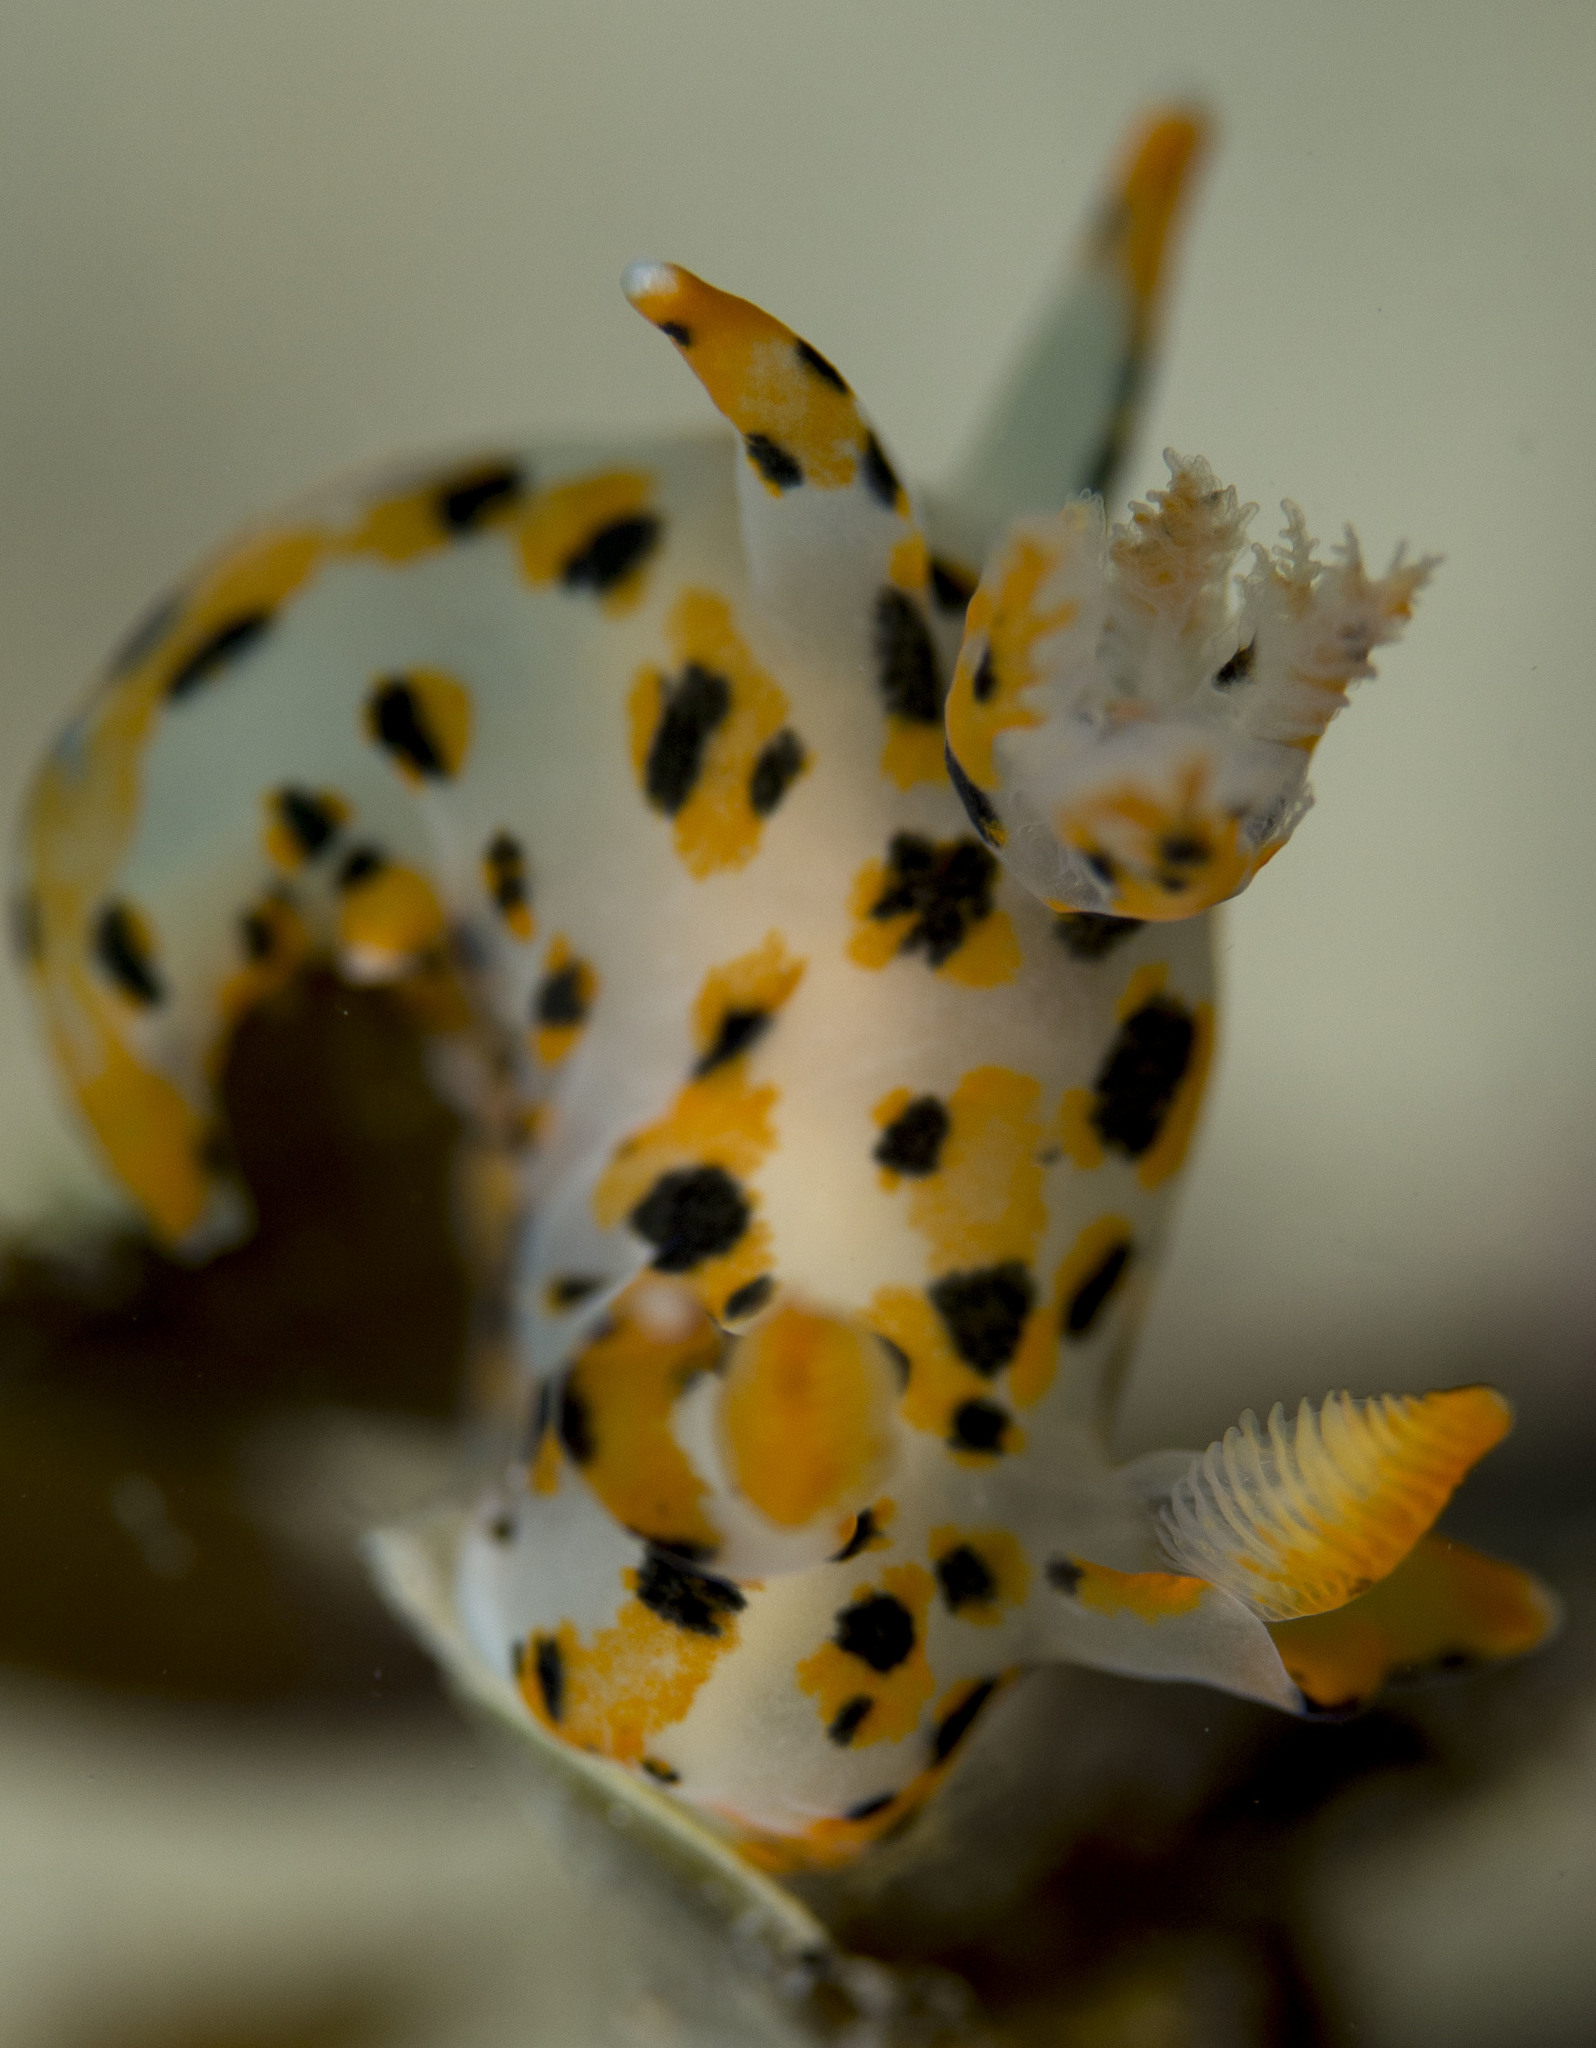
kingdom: Animalia
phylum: Mollusca
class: Gastropoda
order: Nudibranchia
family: Polyceridae
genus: Thecacera
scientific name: Thecacera pennigera
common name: Thecacera
